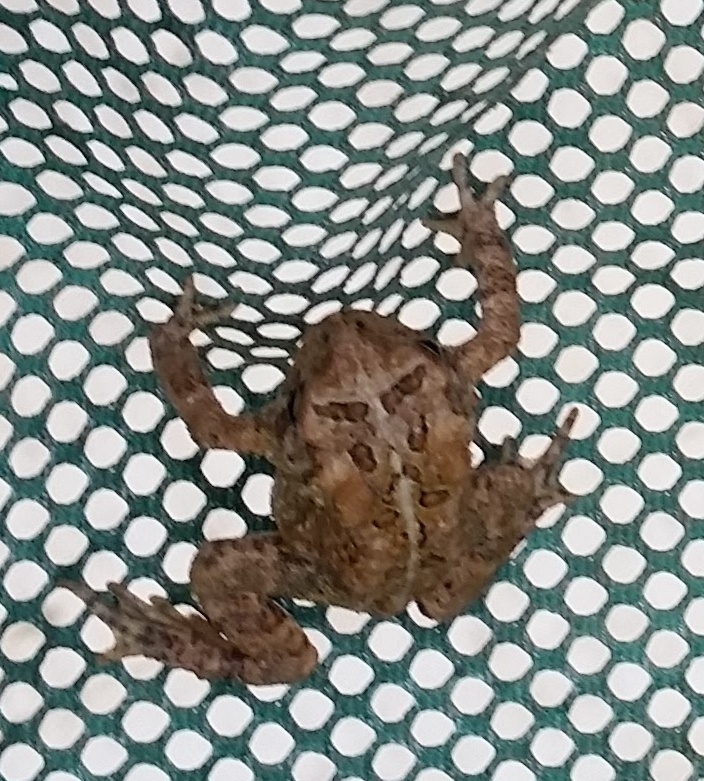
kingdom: Animalia
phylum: Chordata
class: Amphibia
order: Anura
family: Bufonidae
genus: Anaxyrus
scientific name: Anaxyrus americanus
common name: American toad
